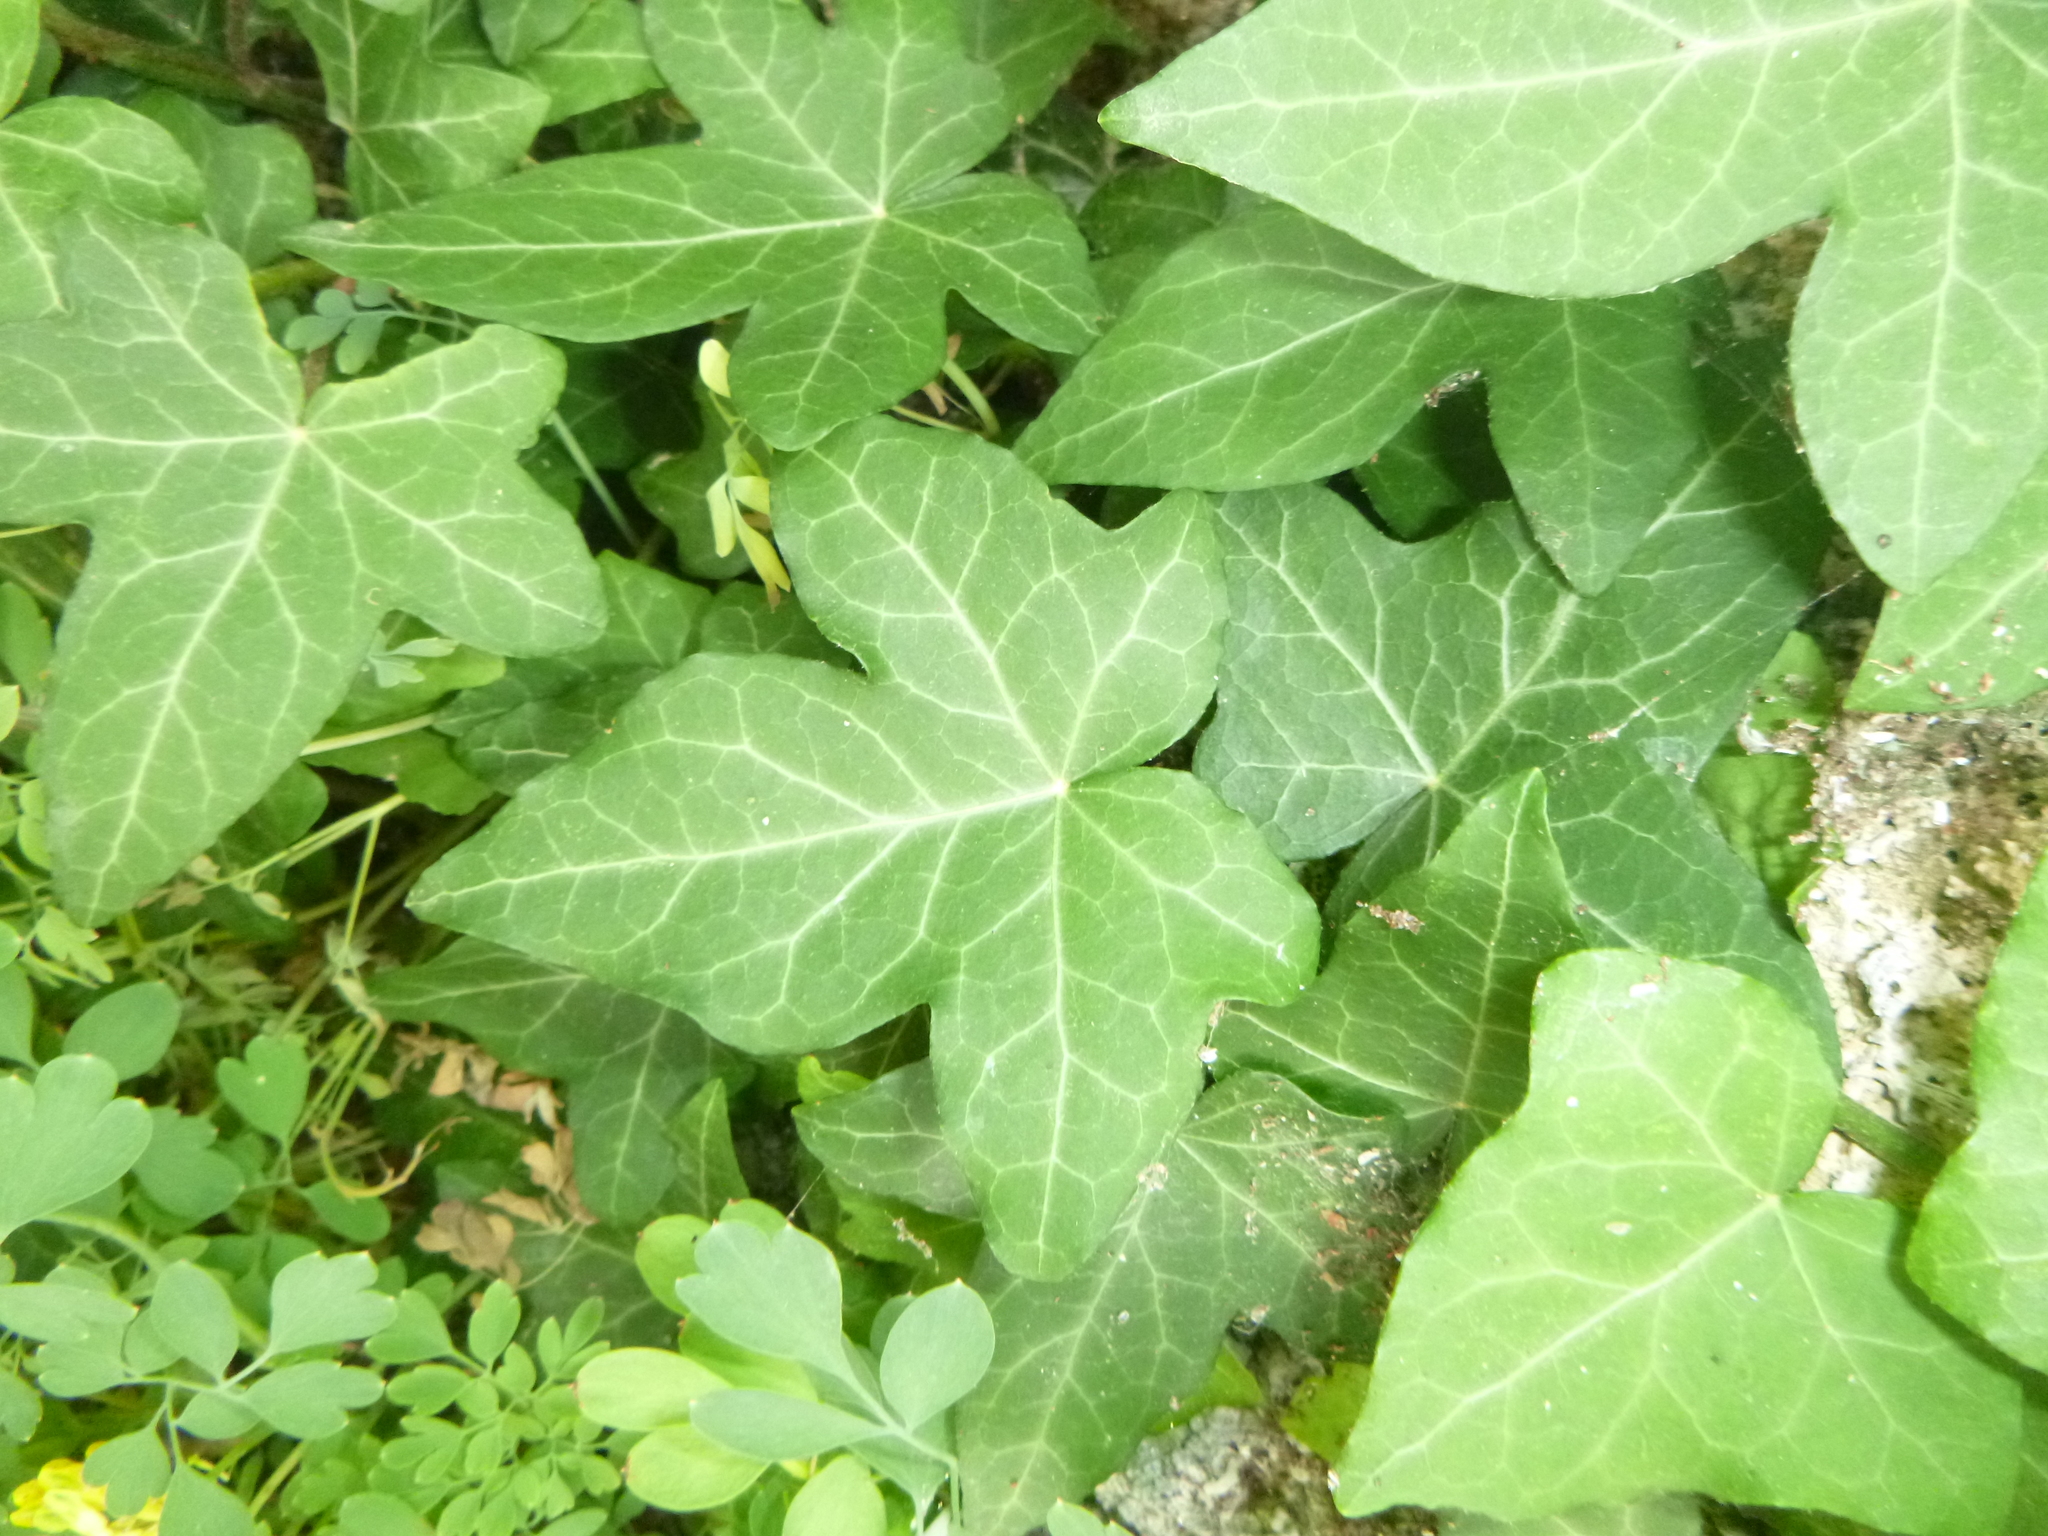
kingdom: Plantae
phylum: Tracheophyta
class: Magnoliopsida
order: Apiales
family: Araliaceae
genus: Hedera
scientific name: Hedera helix
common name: Ivy
